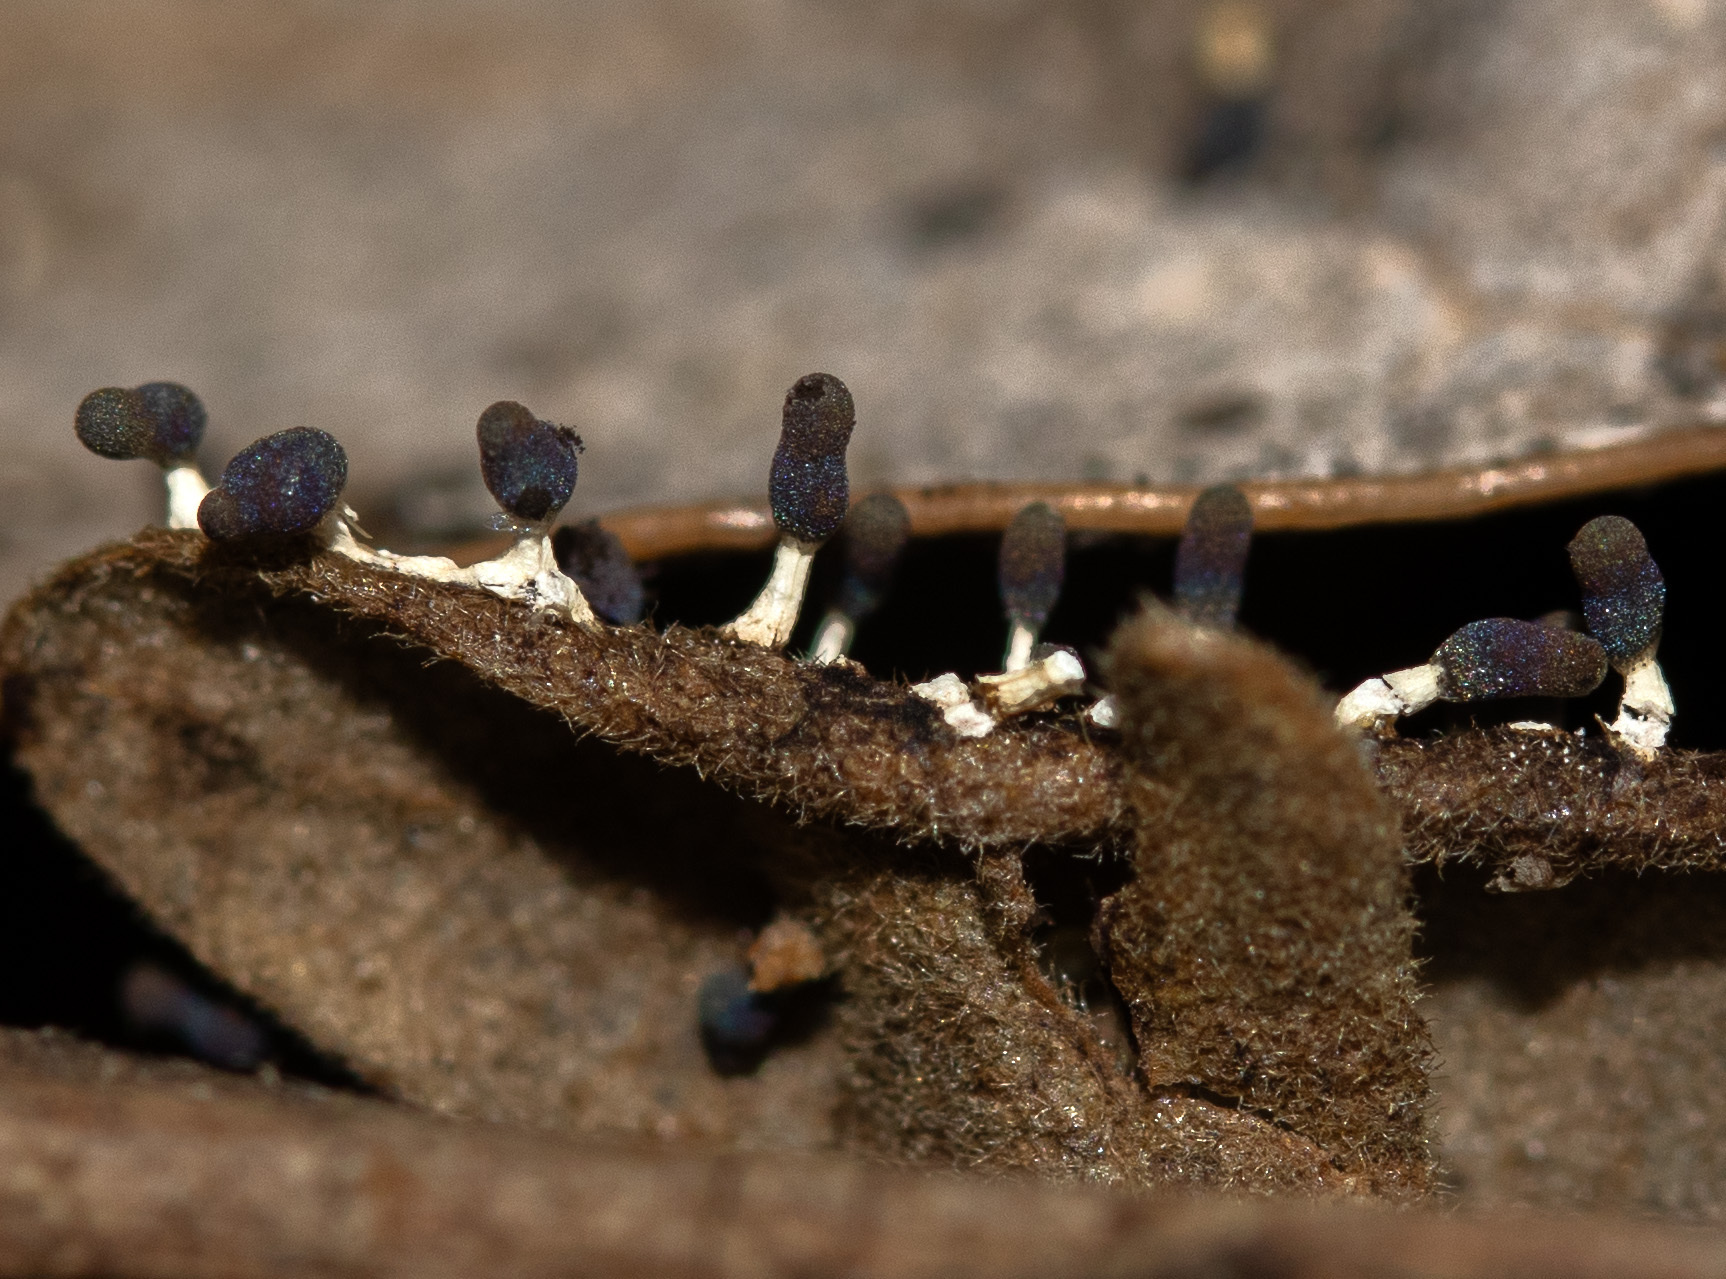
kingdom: Protozoa
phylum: Mycetozoa
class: Myxomycetes
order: Physarales
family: Didymiaceae
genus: Diachea
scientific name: Diachea leucopodia
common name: White-footed slime
